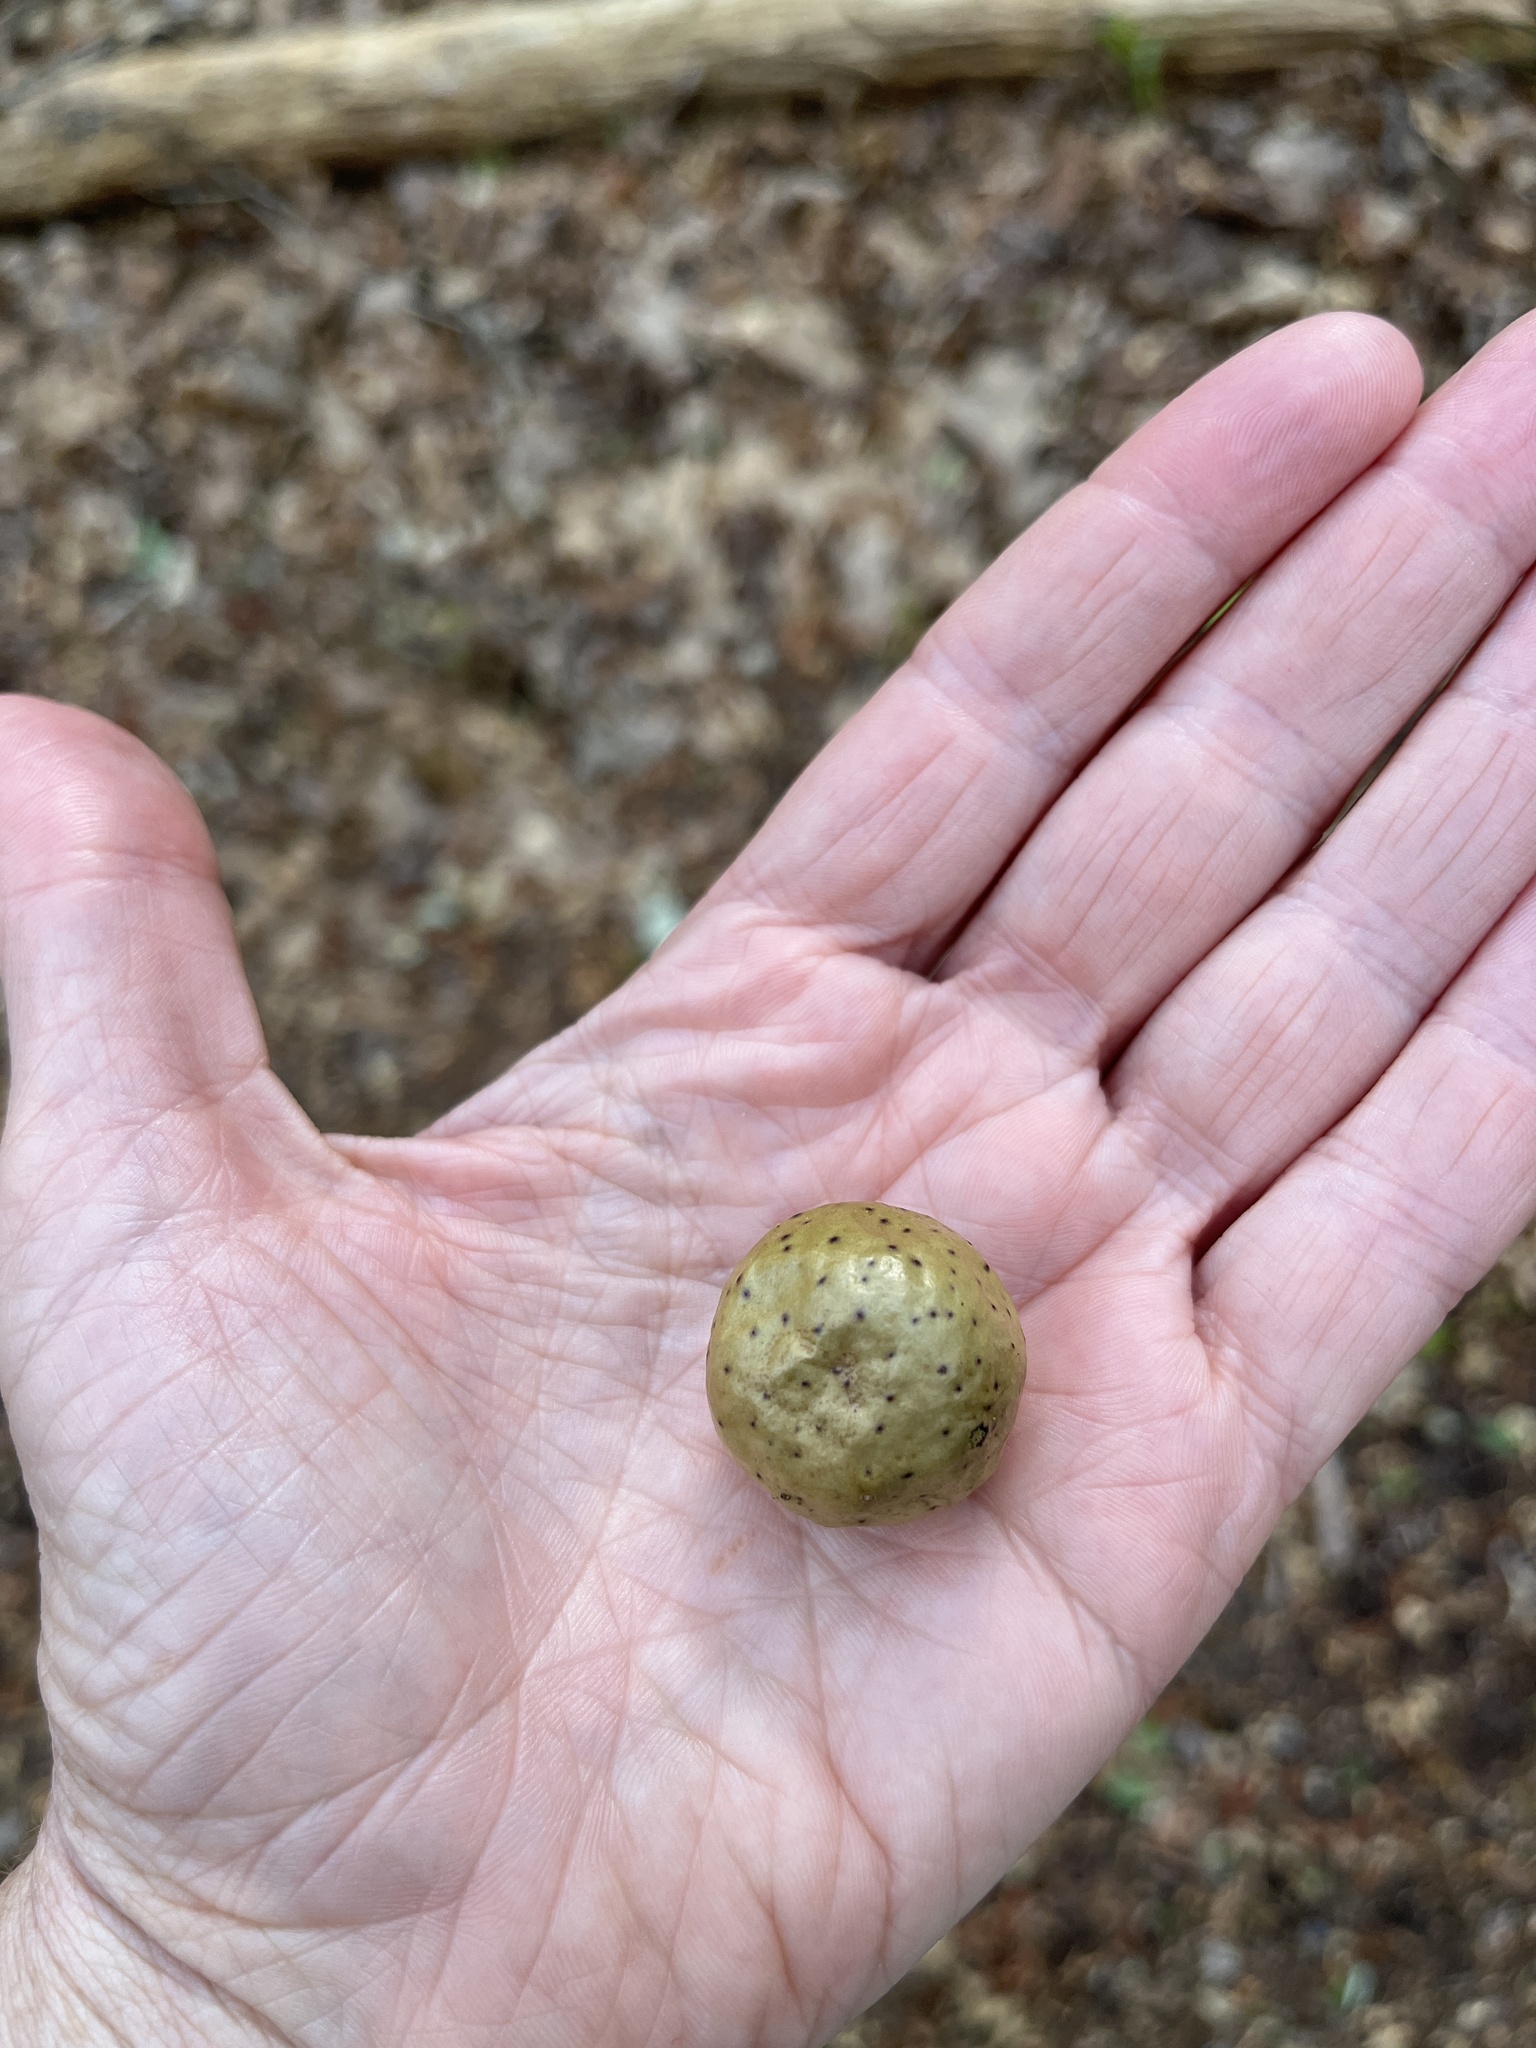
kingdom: Animalia
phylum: Arthropoda
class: Insecta
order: Hymenoptera
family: Cynipidae
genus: Amphibolips
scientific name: Amphibolips
